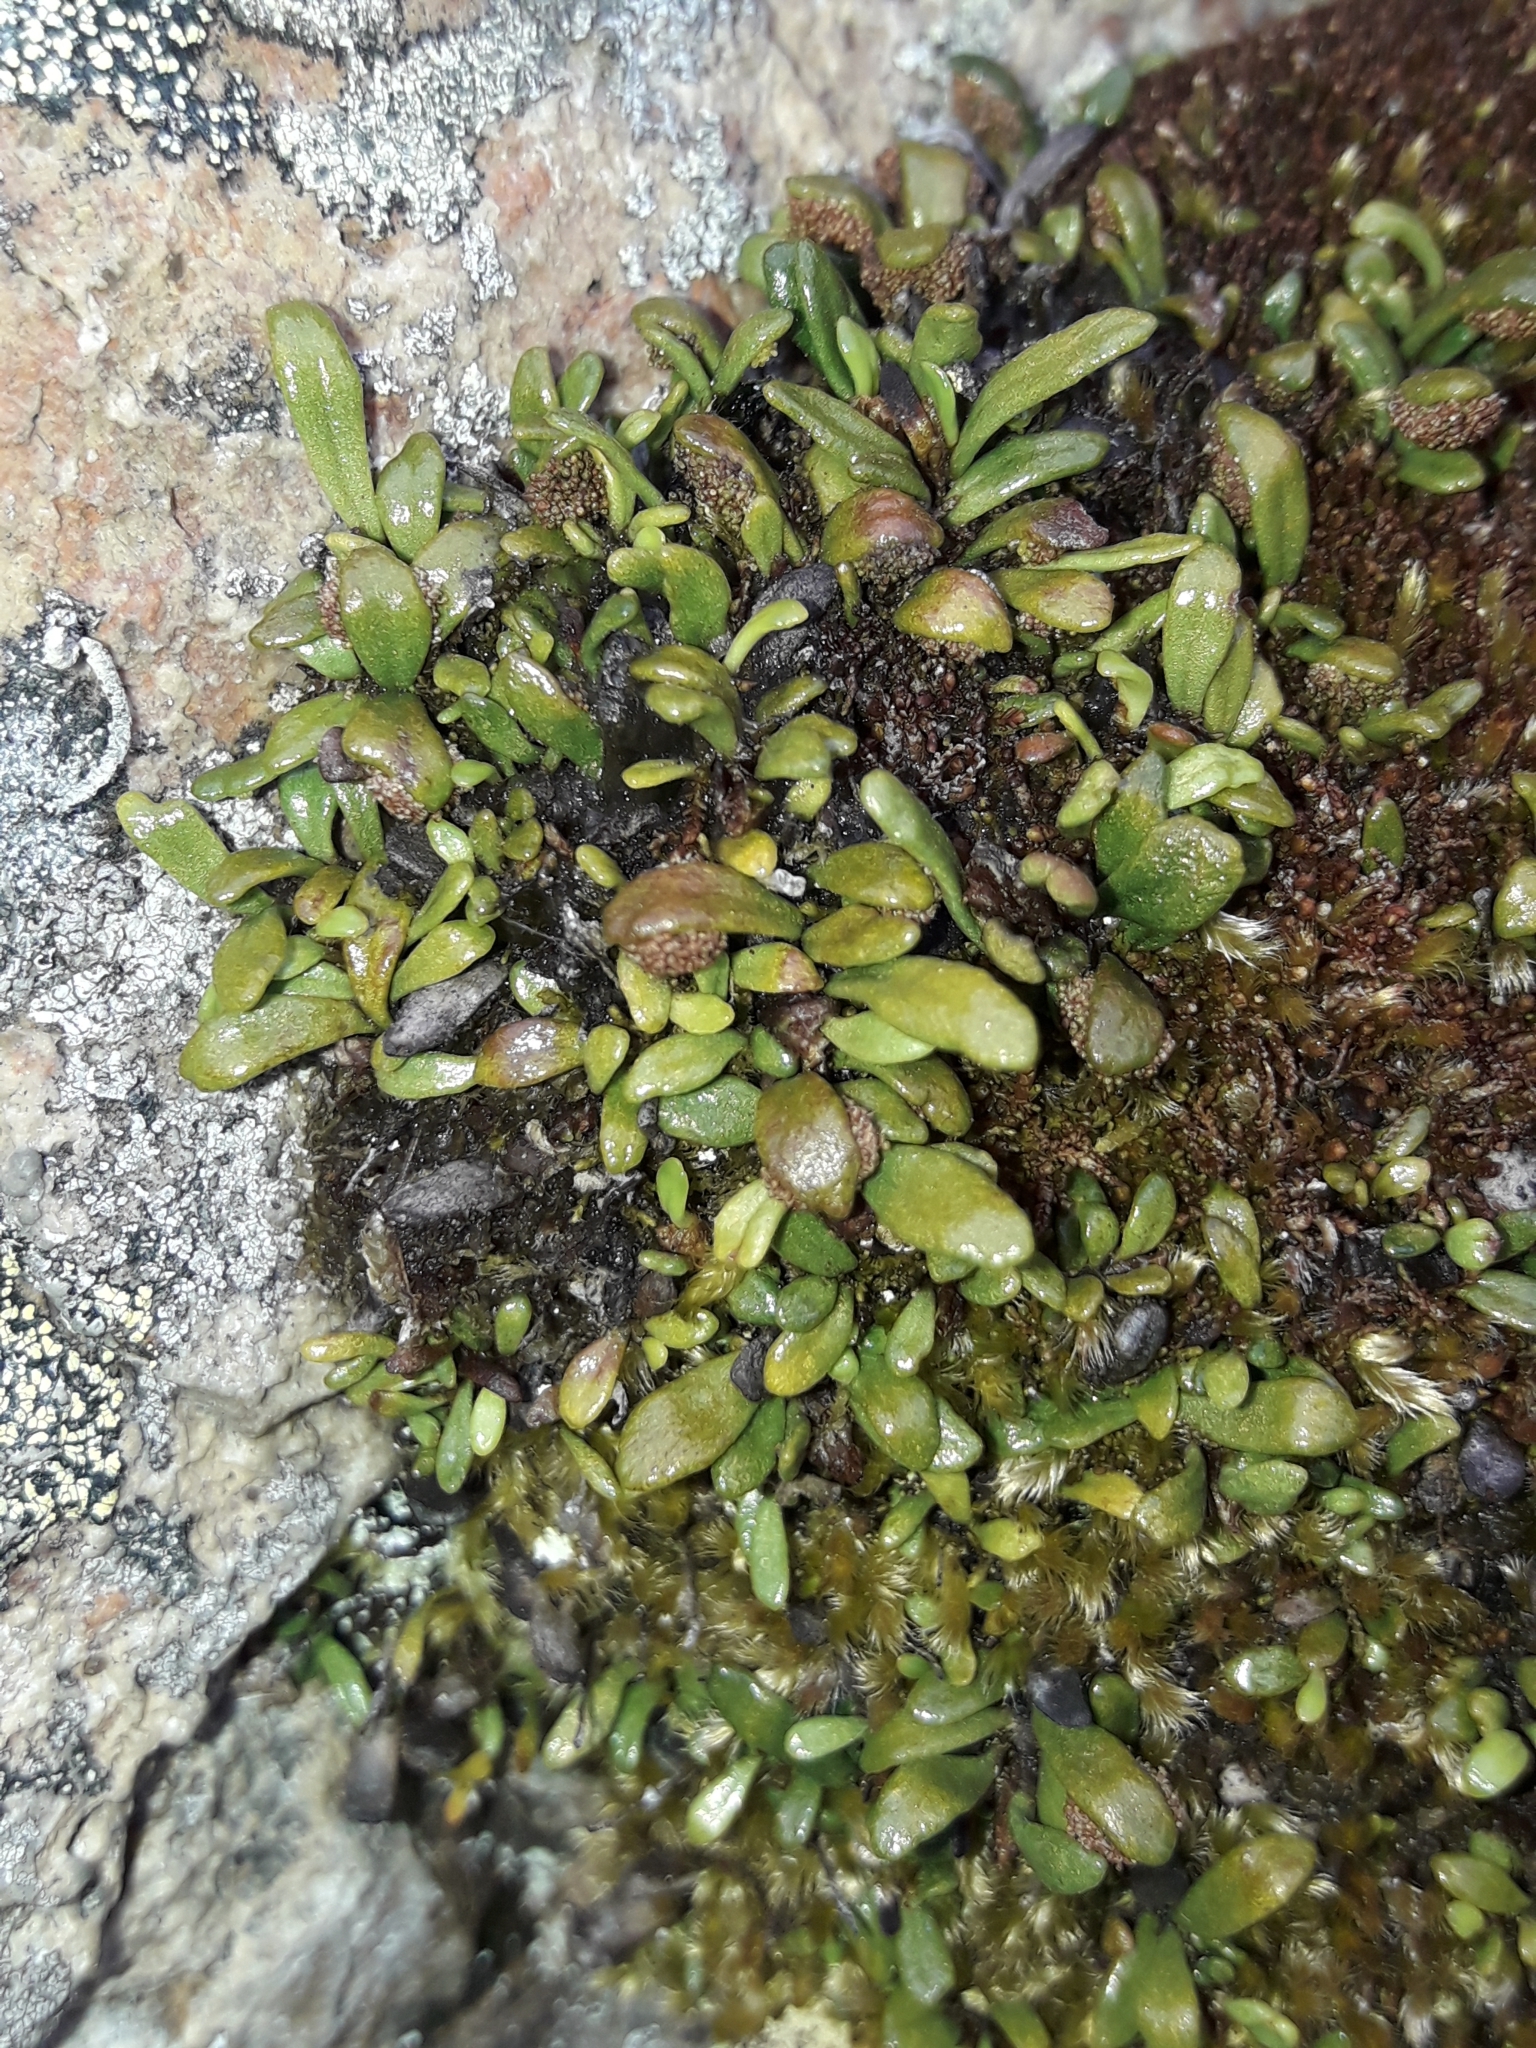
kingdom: Plantae
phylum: Tracheophyta
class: Polypodiopsida
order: Polypodiales
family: Polypodiaceae
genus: Notogrammitis
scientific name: Notogrammitis crassior
